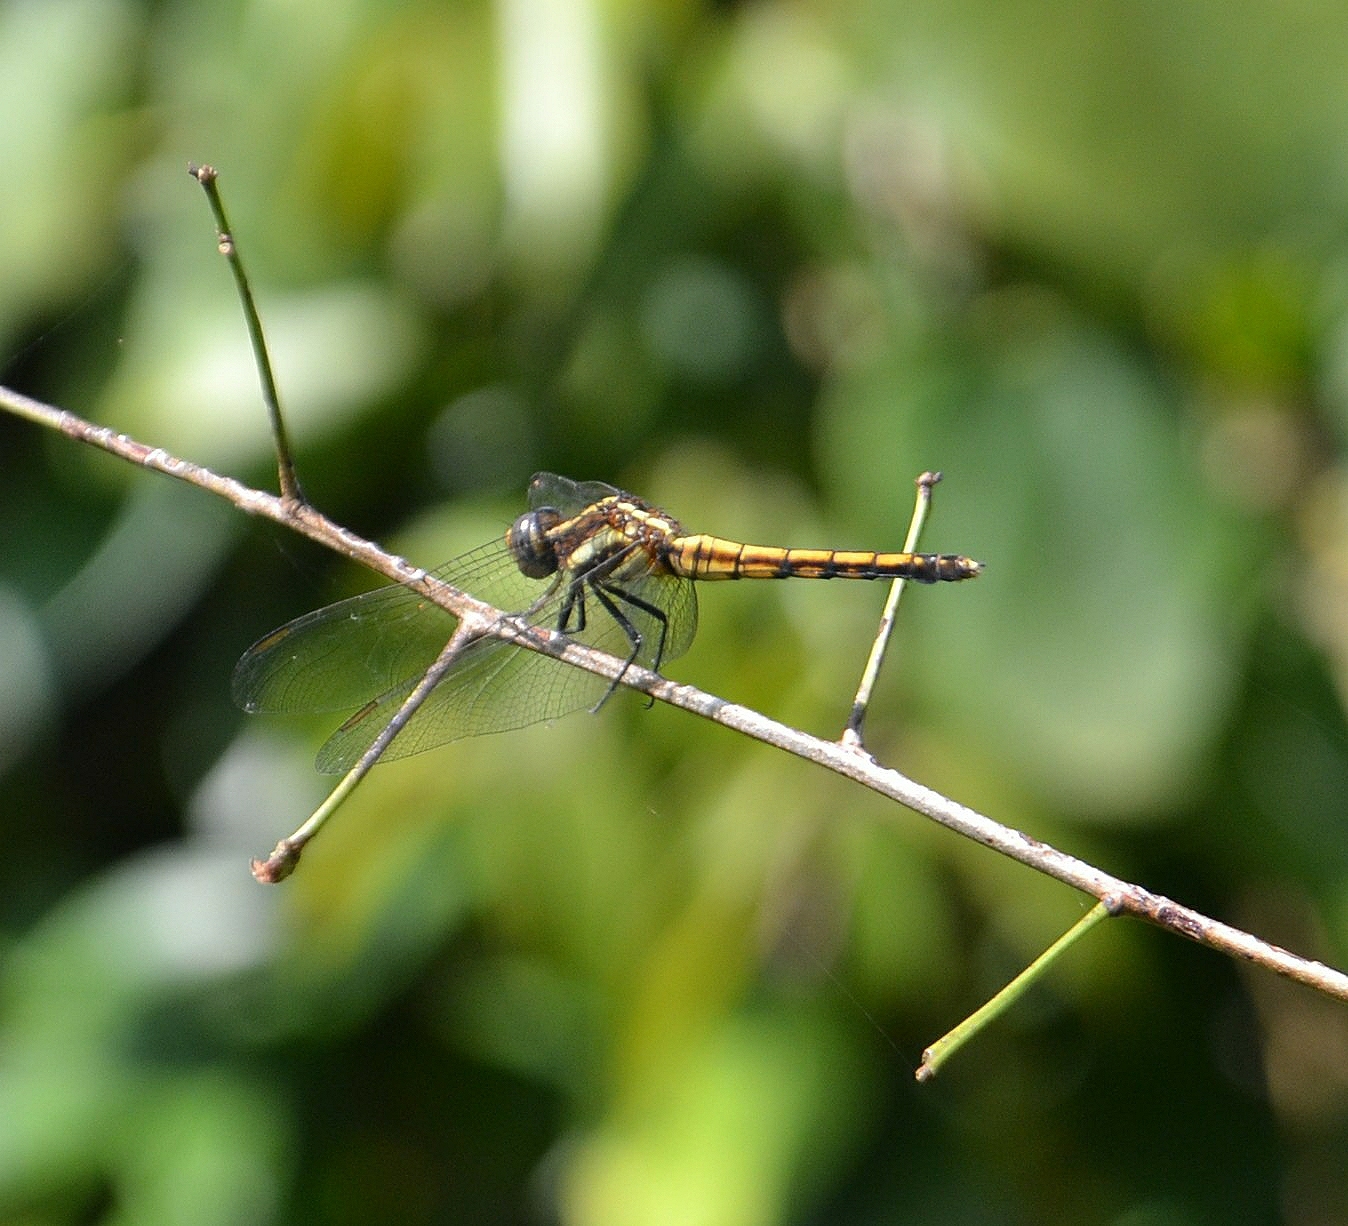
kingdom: Animalia
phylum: Arthropoda
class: Insecta
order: Odonata
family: Libellulidae
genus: Orthetrum
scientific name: Orthetrum glaucum
